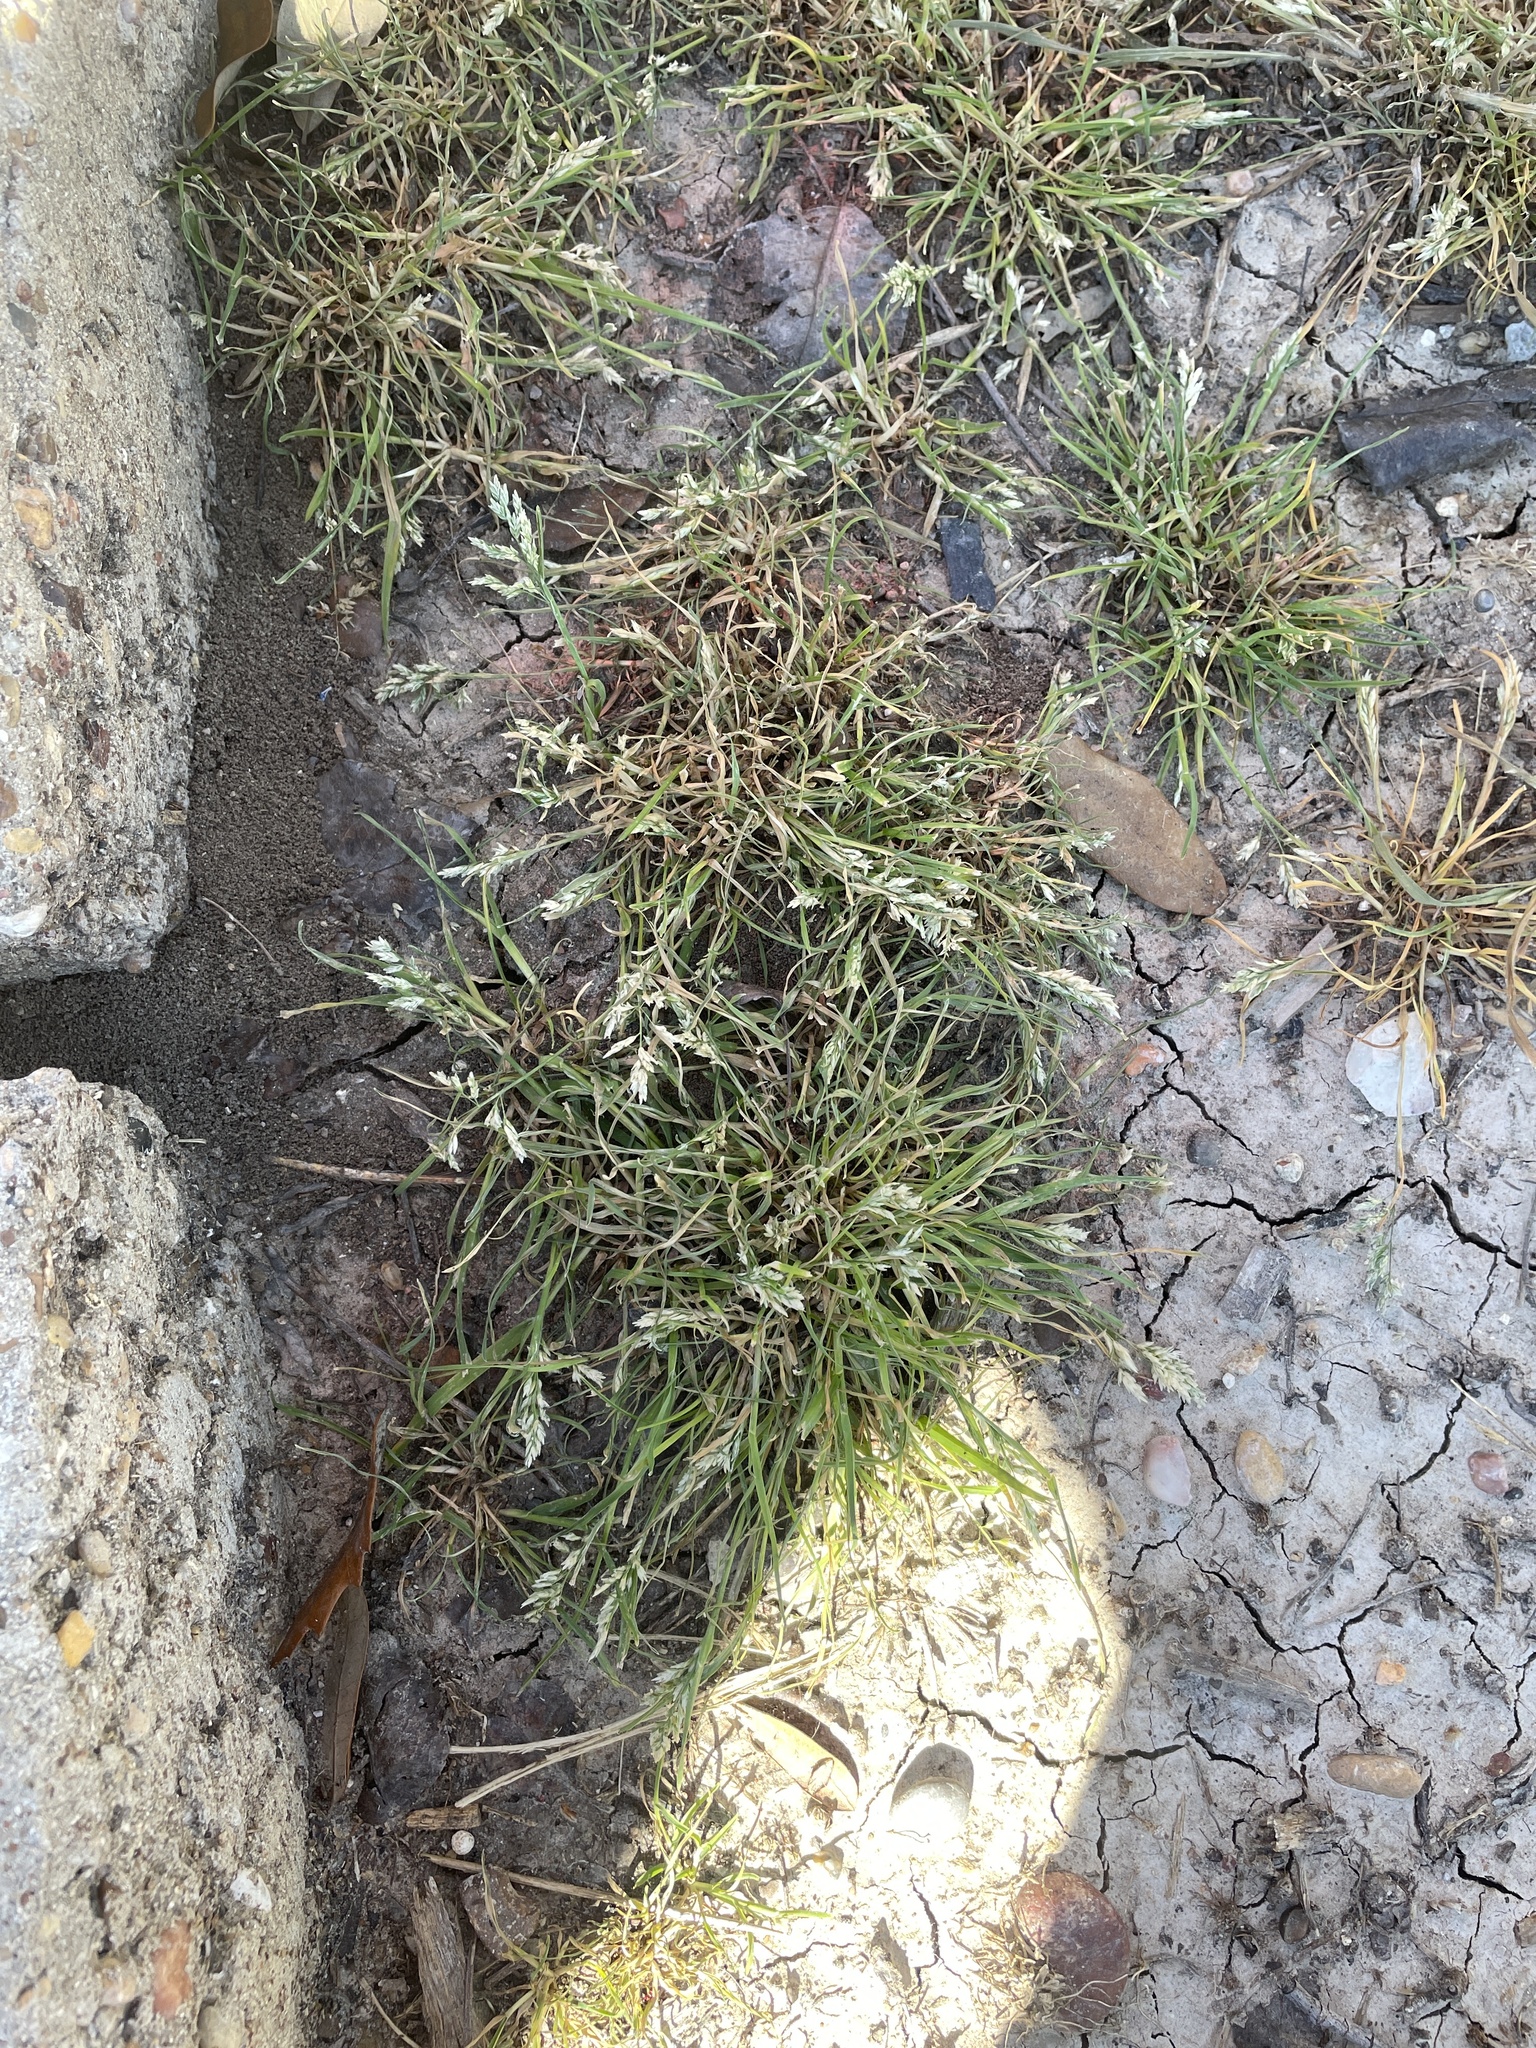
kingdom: Plantae
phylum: Tracheophyta
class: Liliopsida
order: Poales
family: Poaceae
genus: Poa
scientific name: Poa annua
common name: Annual bluegrass
